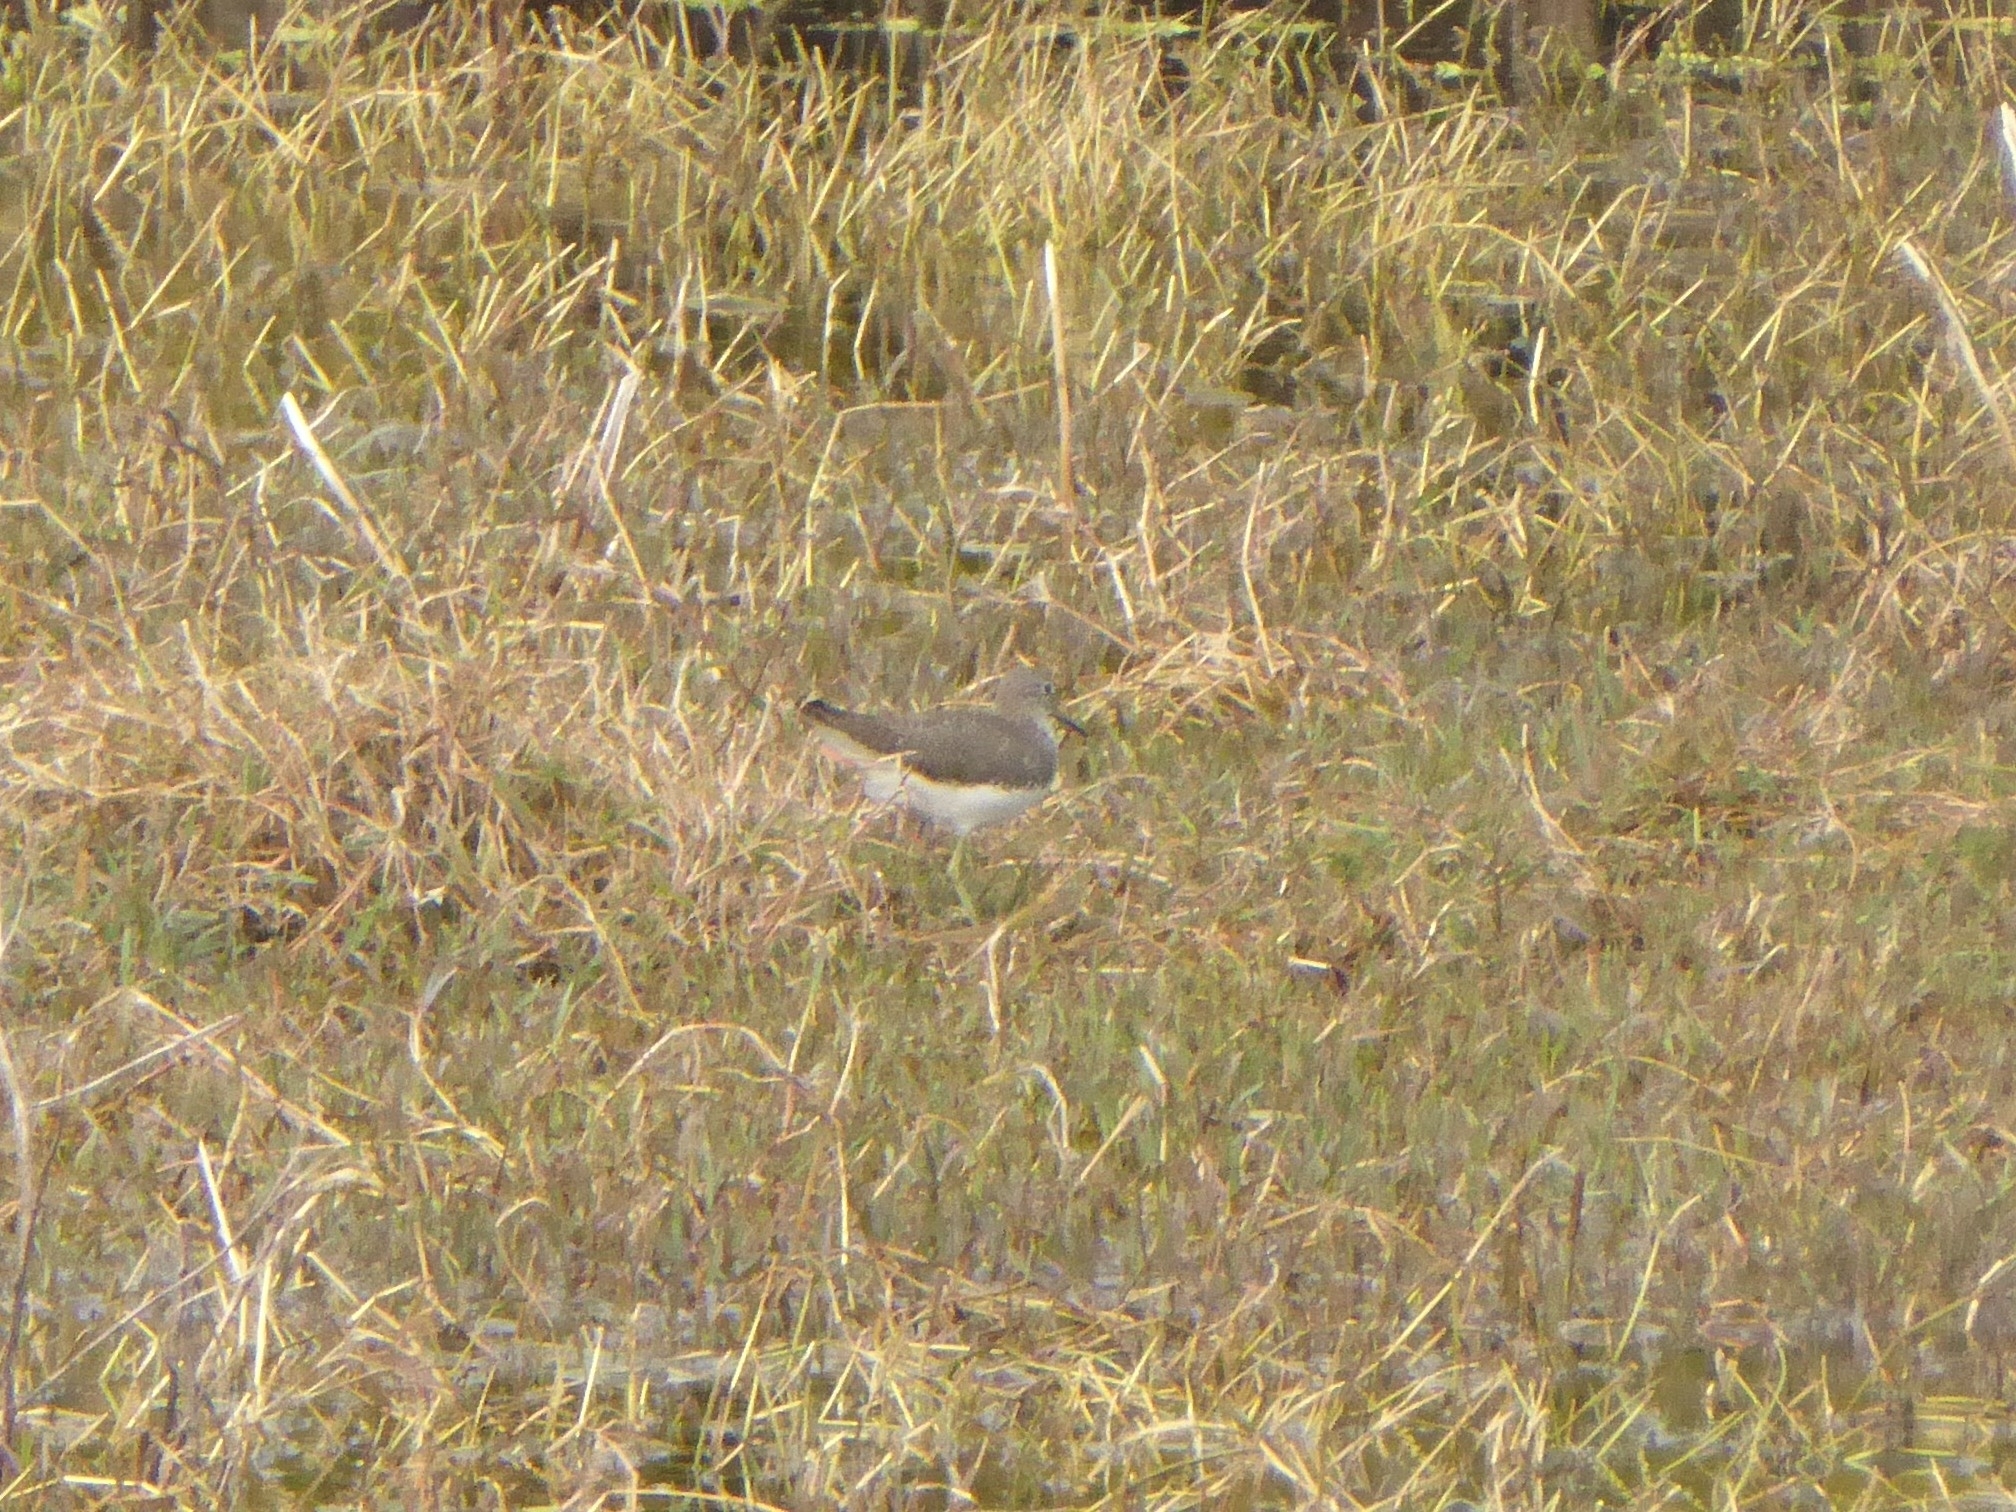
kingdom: Animalia
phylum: Chordata
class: Aves
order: Charadriiformes
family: Scolopacidae
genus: Tringa
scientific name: Tringa ochropus
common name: Green sandpiper
